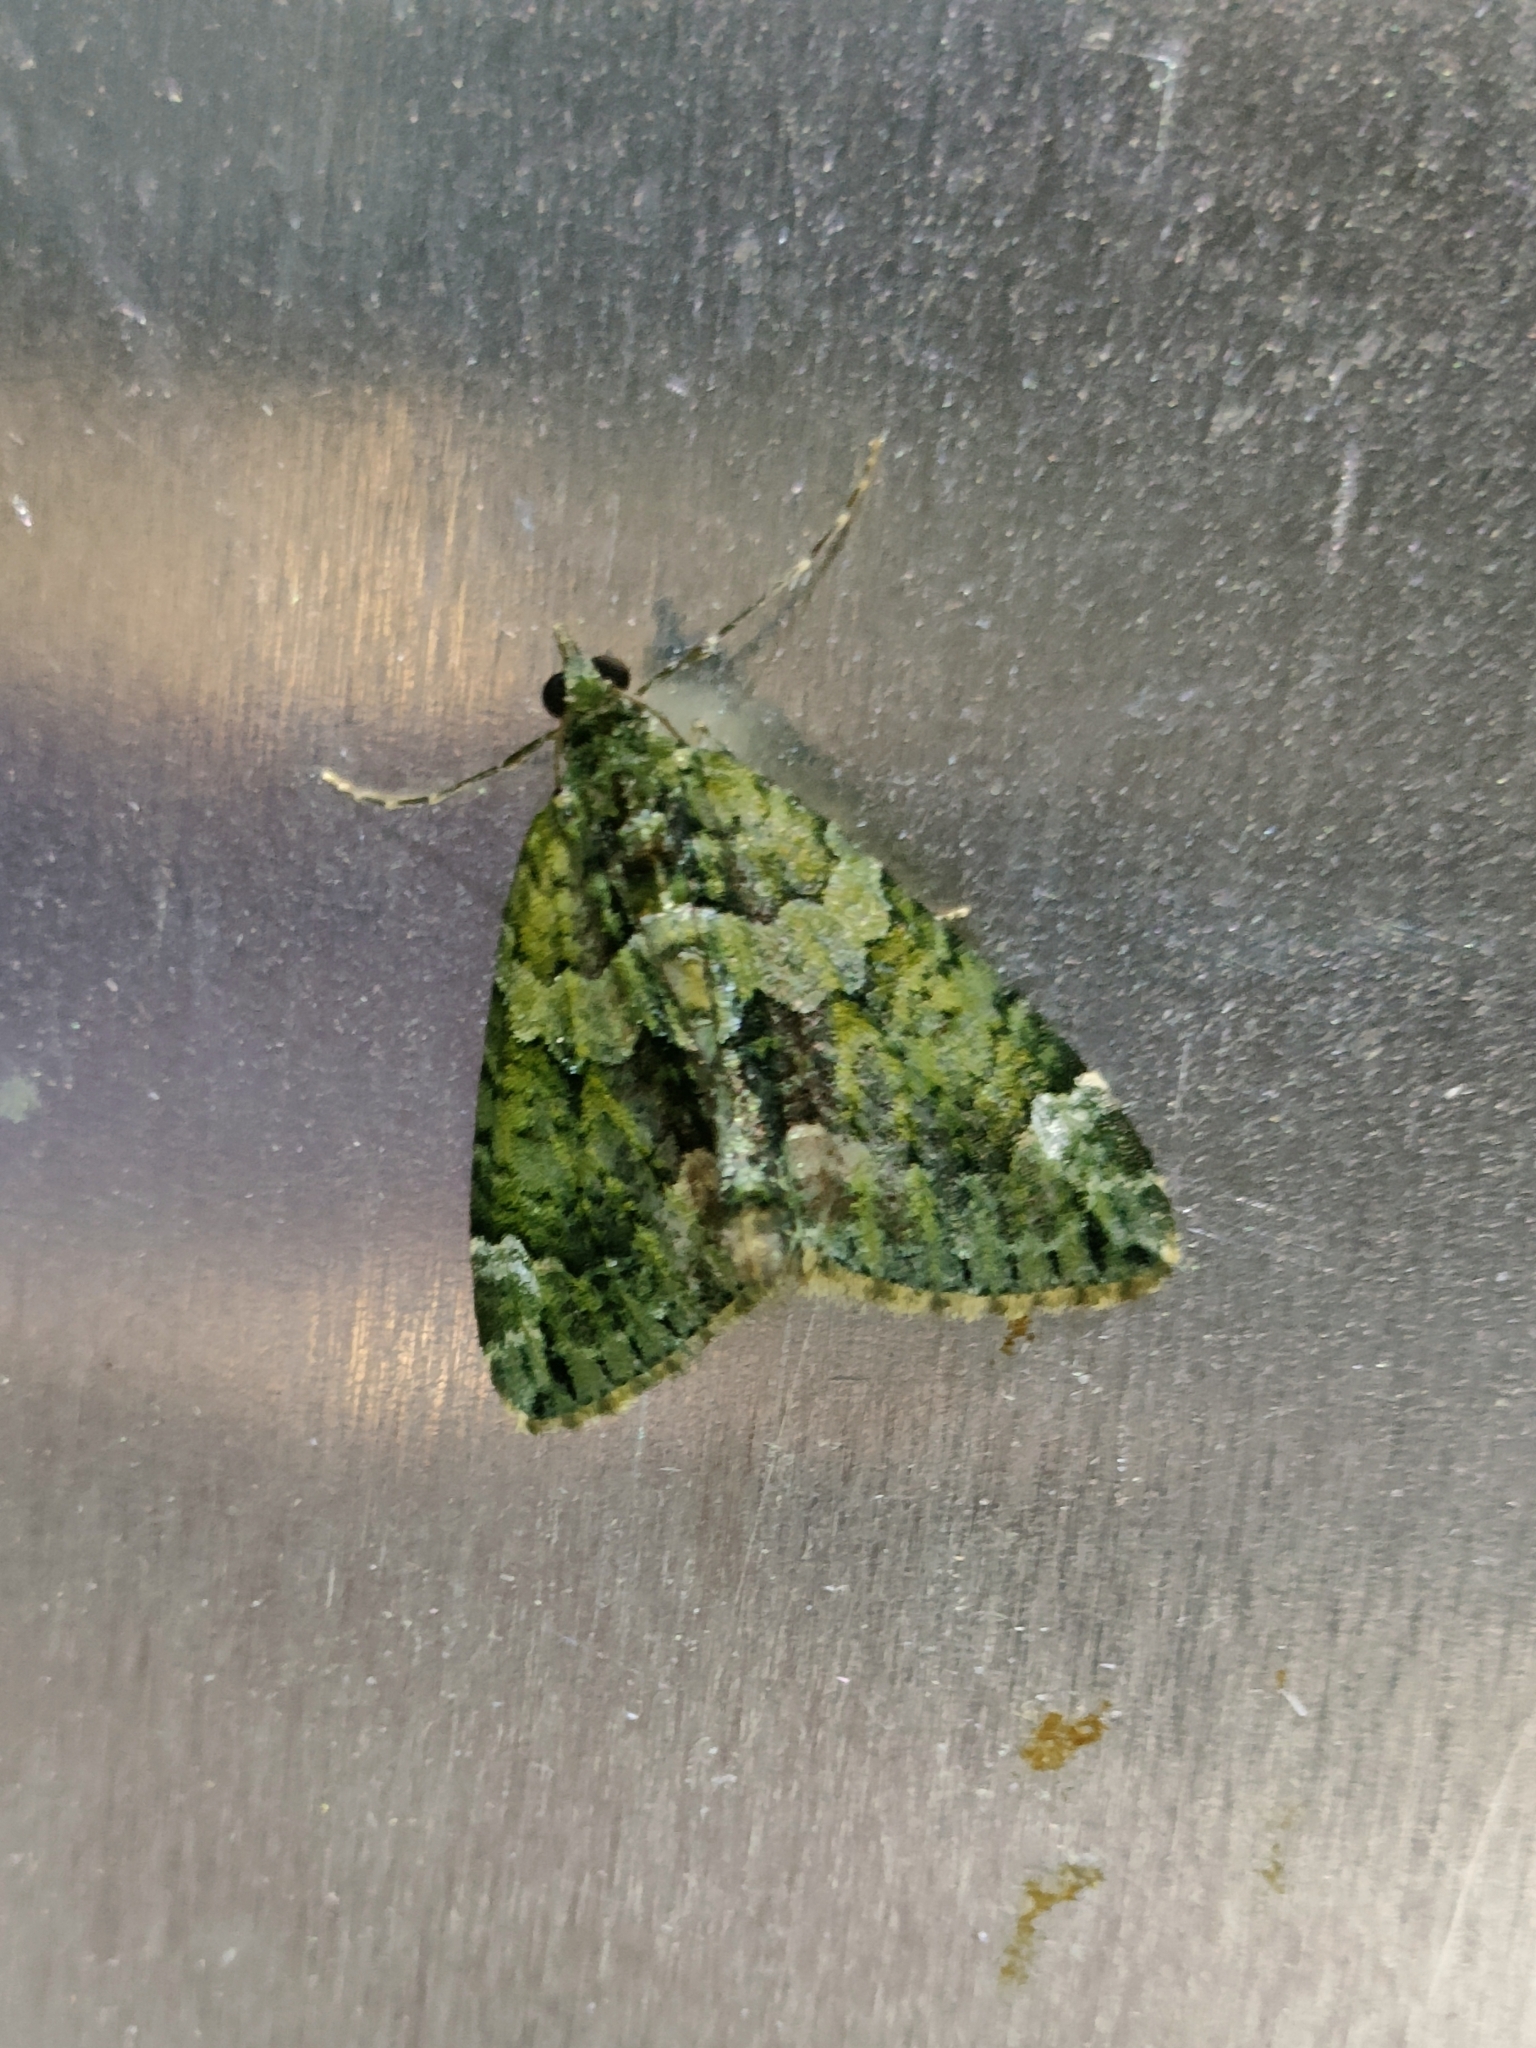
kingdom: Animalia
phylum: Arthropoda
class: Insecta
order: Lepidoptera
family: Geometridae
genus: Chloroclysta
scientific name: Chloroclysta siterata
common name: Red-green carpet
